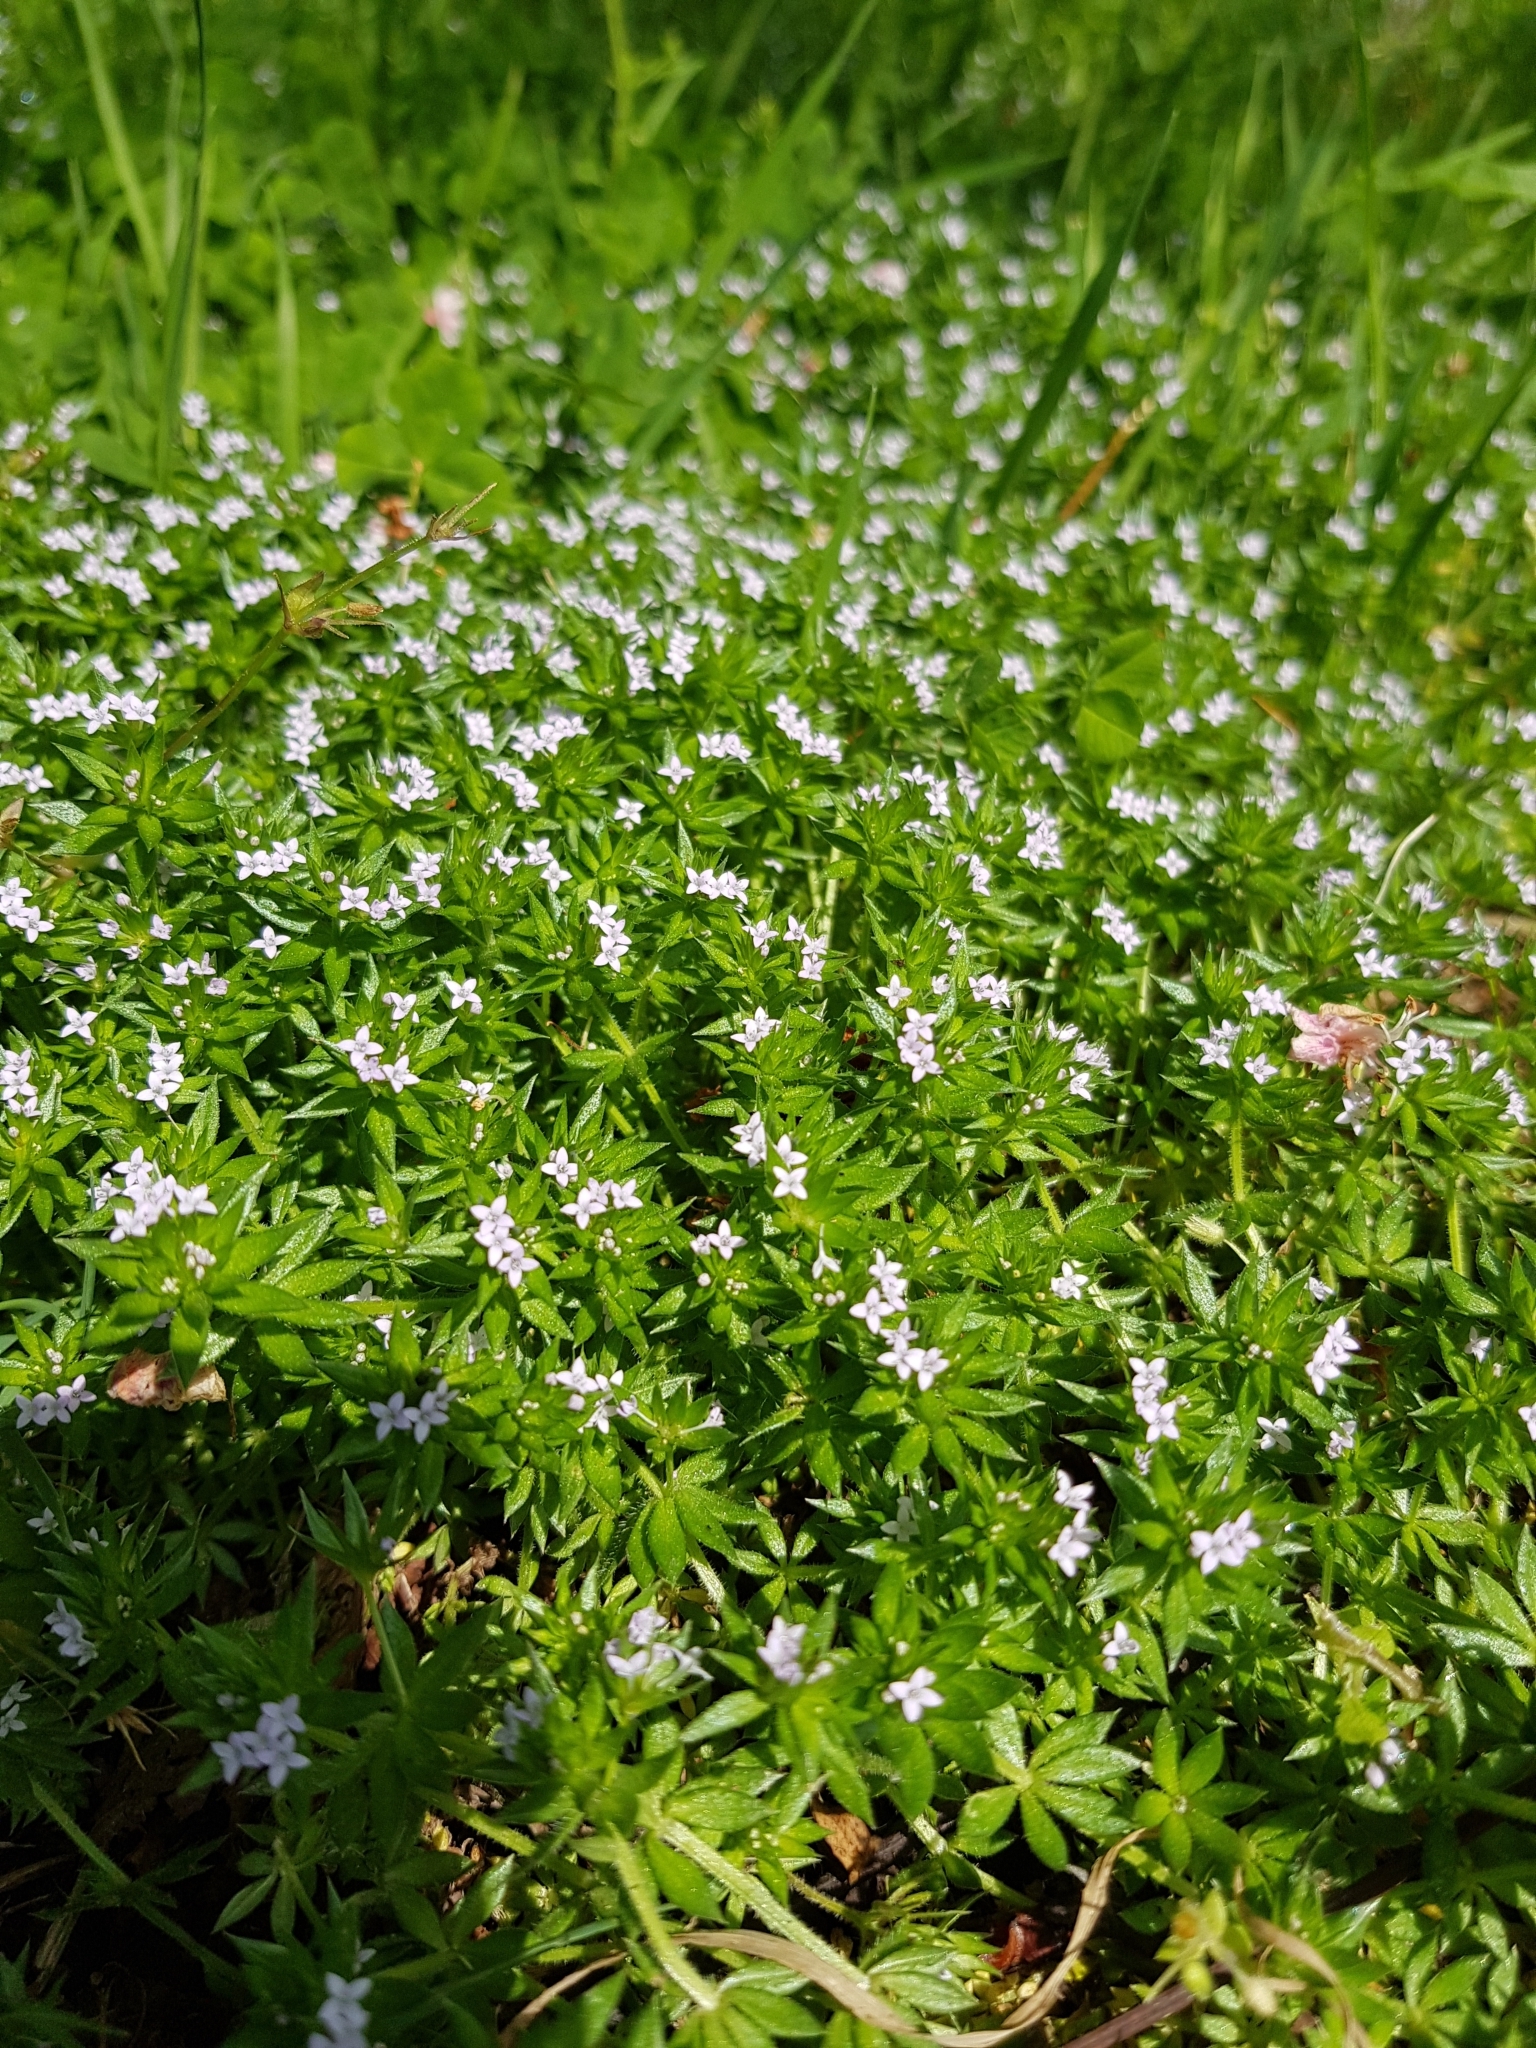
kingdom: Plantae
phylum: Tracheophyta
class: Magnoliopsida
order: Gentianales
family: Rubiaceae
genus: Sherardia
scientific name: Sherardia arvensis
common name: Field madder
